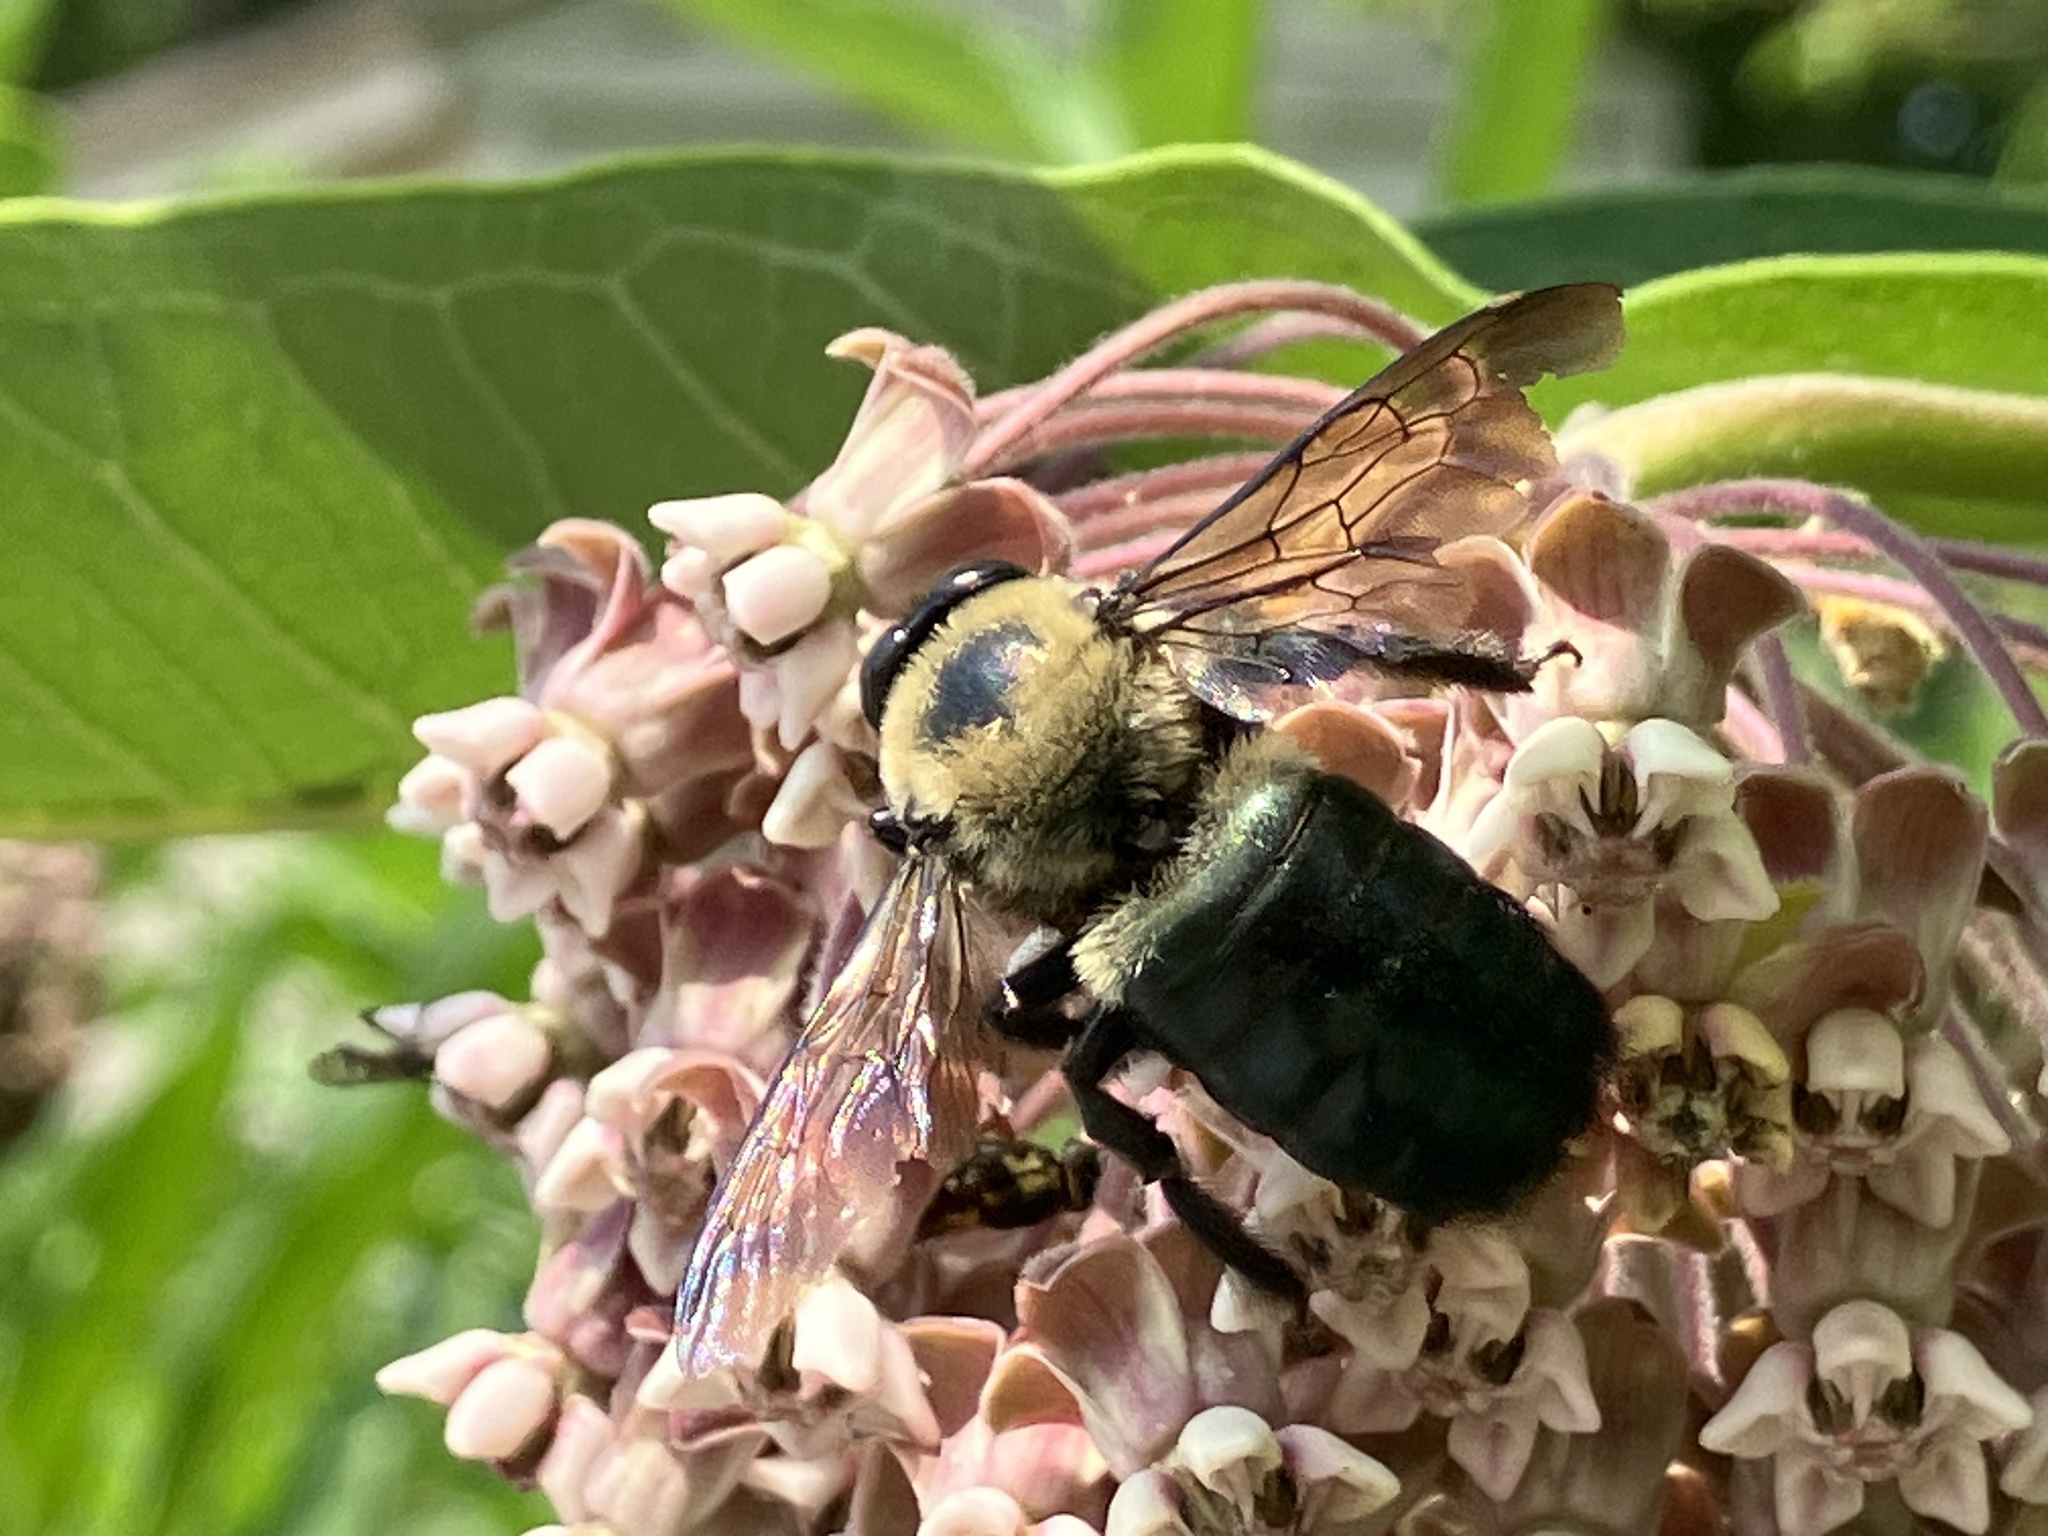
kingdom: Animalia
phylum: Arthropoda
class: Insecta
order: Hymenoptera
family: Apidae
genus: Xylocopa
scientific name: Xylocopa virginica
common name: Carpenter bee
